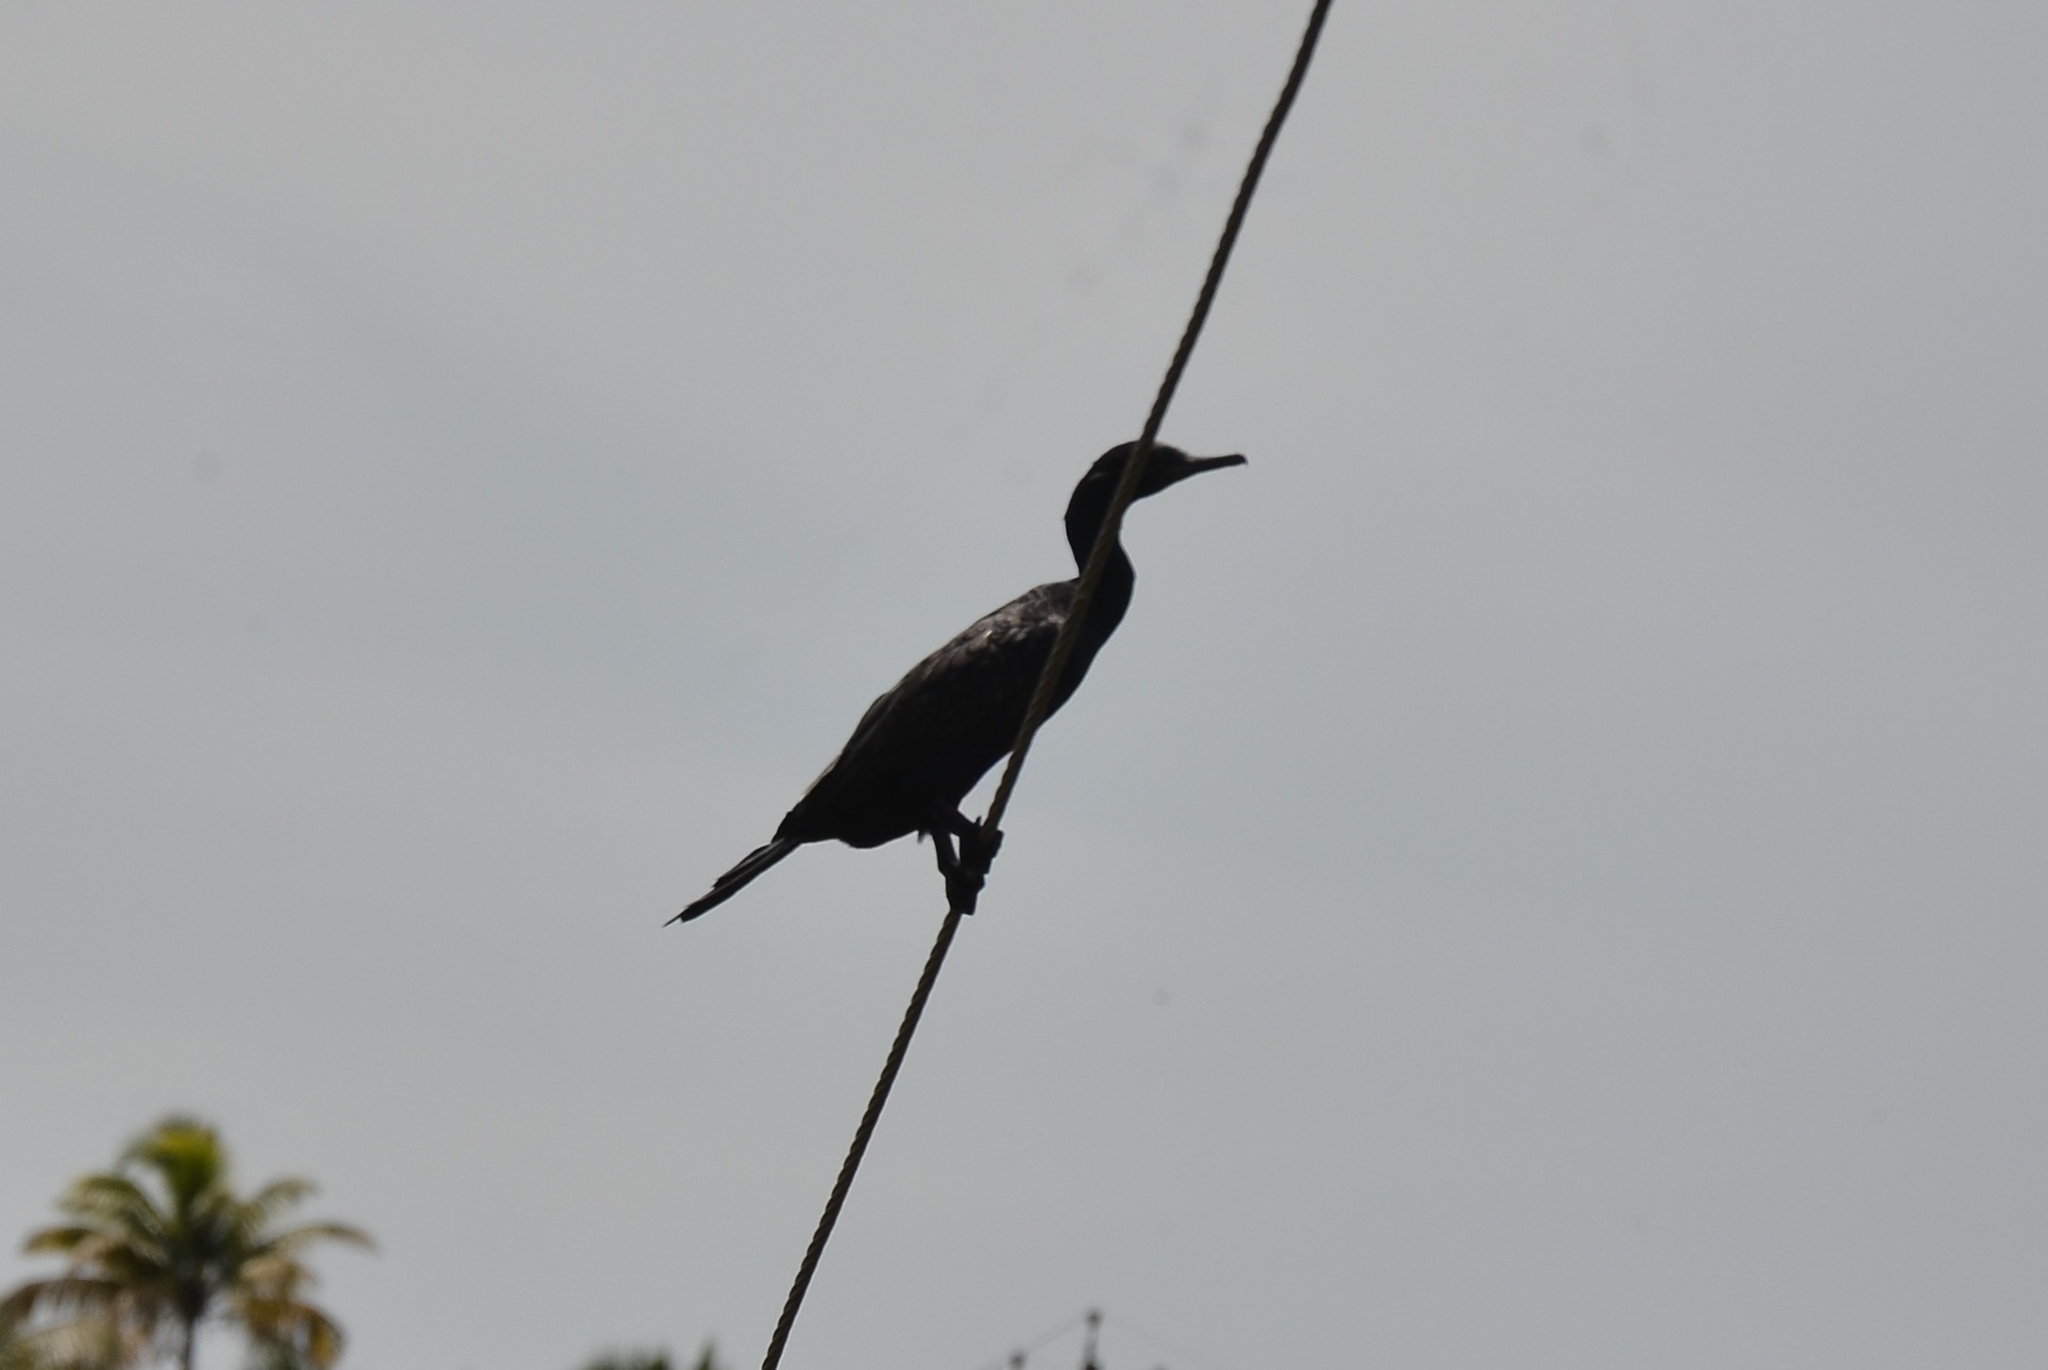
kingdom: Animalia
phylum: Chordata
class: Aves
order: Suliformes
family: Phalacrocoracidae
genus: Phalacrocorax
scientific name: Phalacrocorax fuscicollis
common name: Indian cormorant
